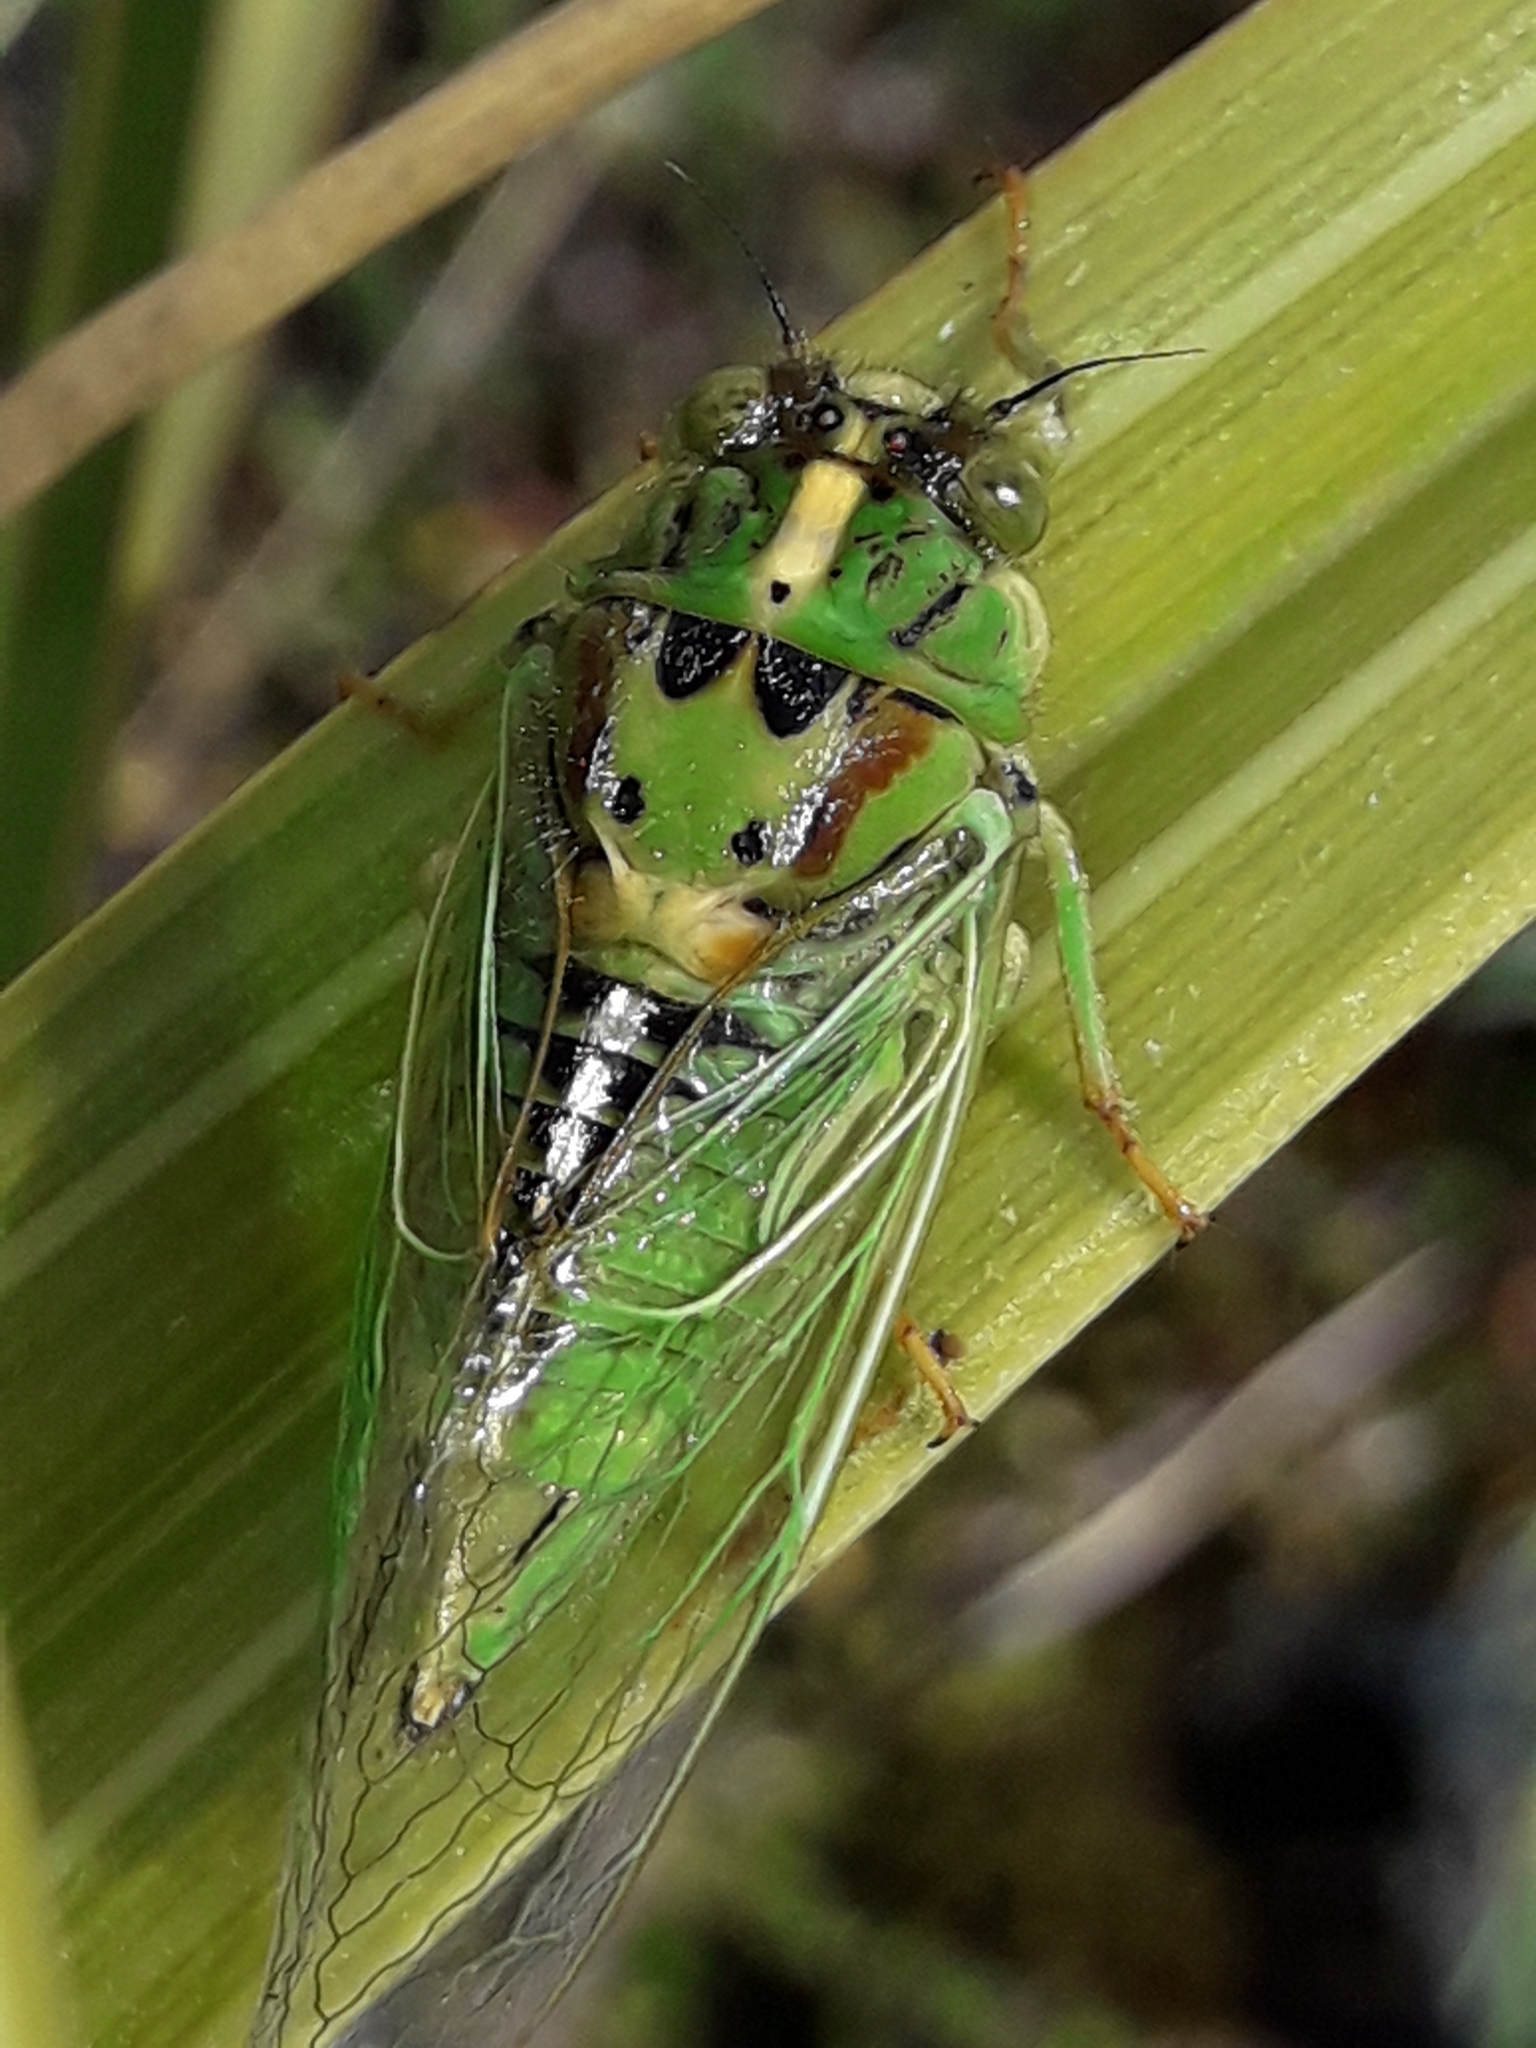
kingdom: Animalia
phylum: Arthropoda
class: Insecta
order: Hemiptera
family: Cicadidae
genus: Kikihia
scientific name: Kikihia horologium
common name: Clock cicada
